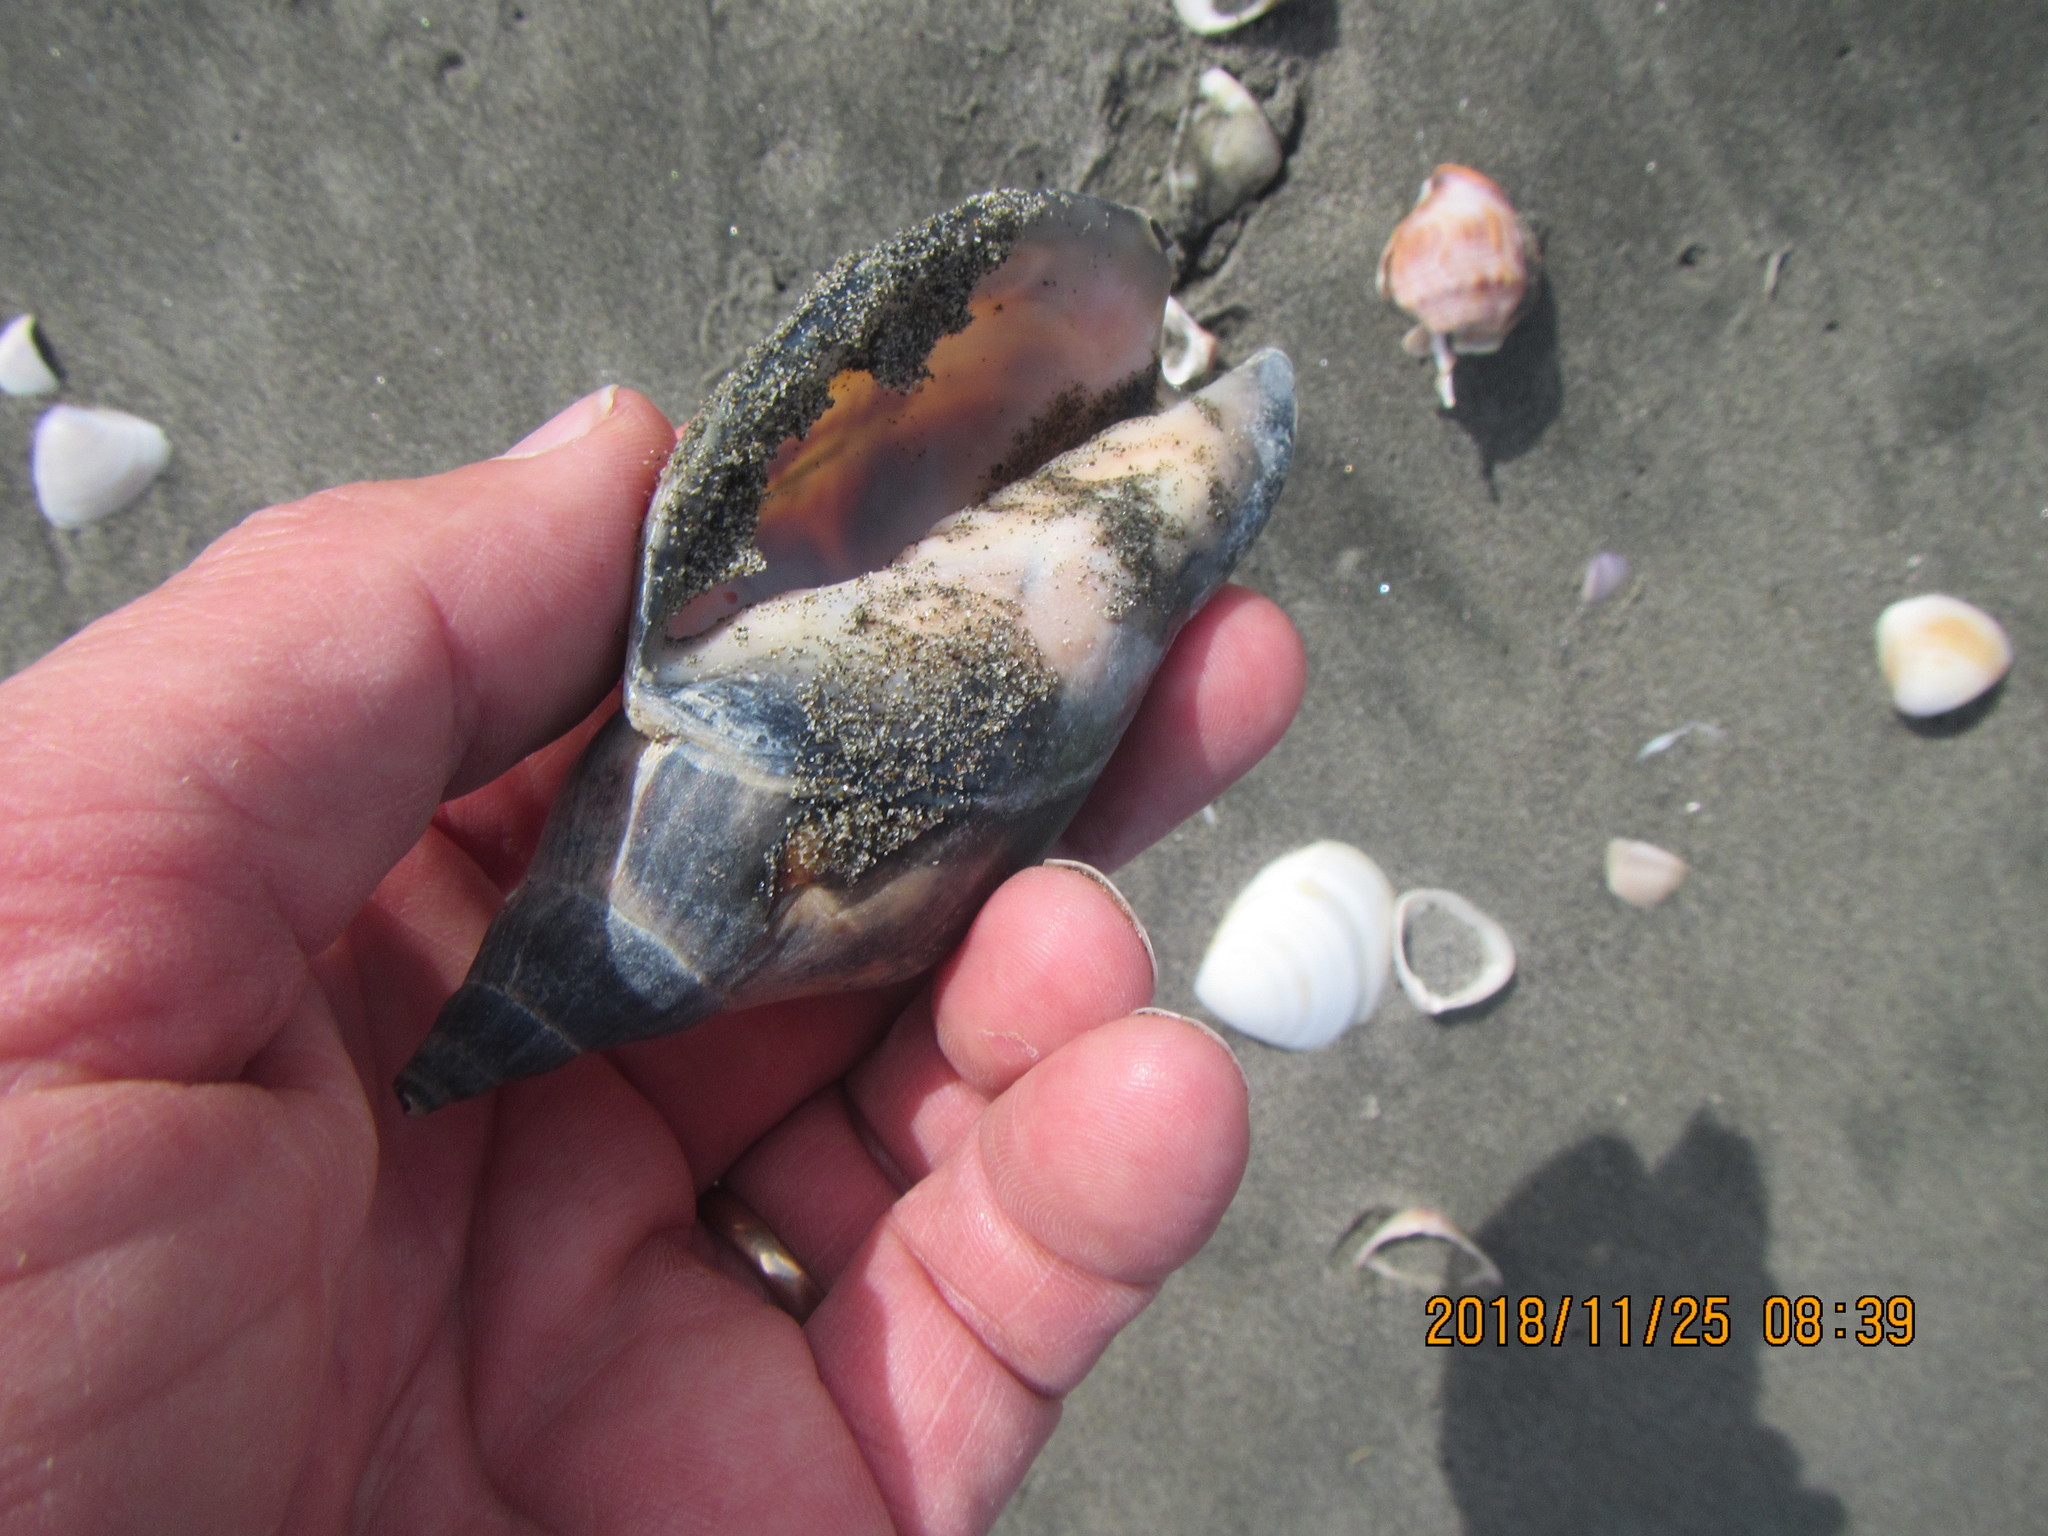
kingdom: Animalia
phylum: Mollusca
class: Gastropoda
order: Neogastropoda
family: Volutidae
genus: Alcithoe
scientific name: Alcithoe arabica
